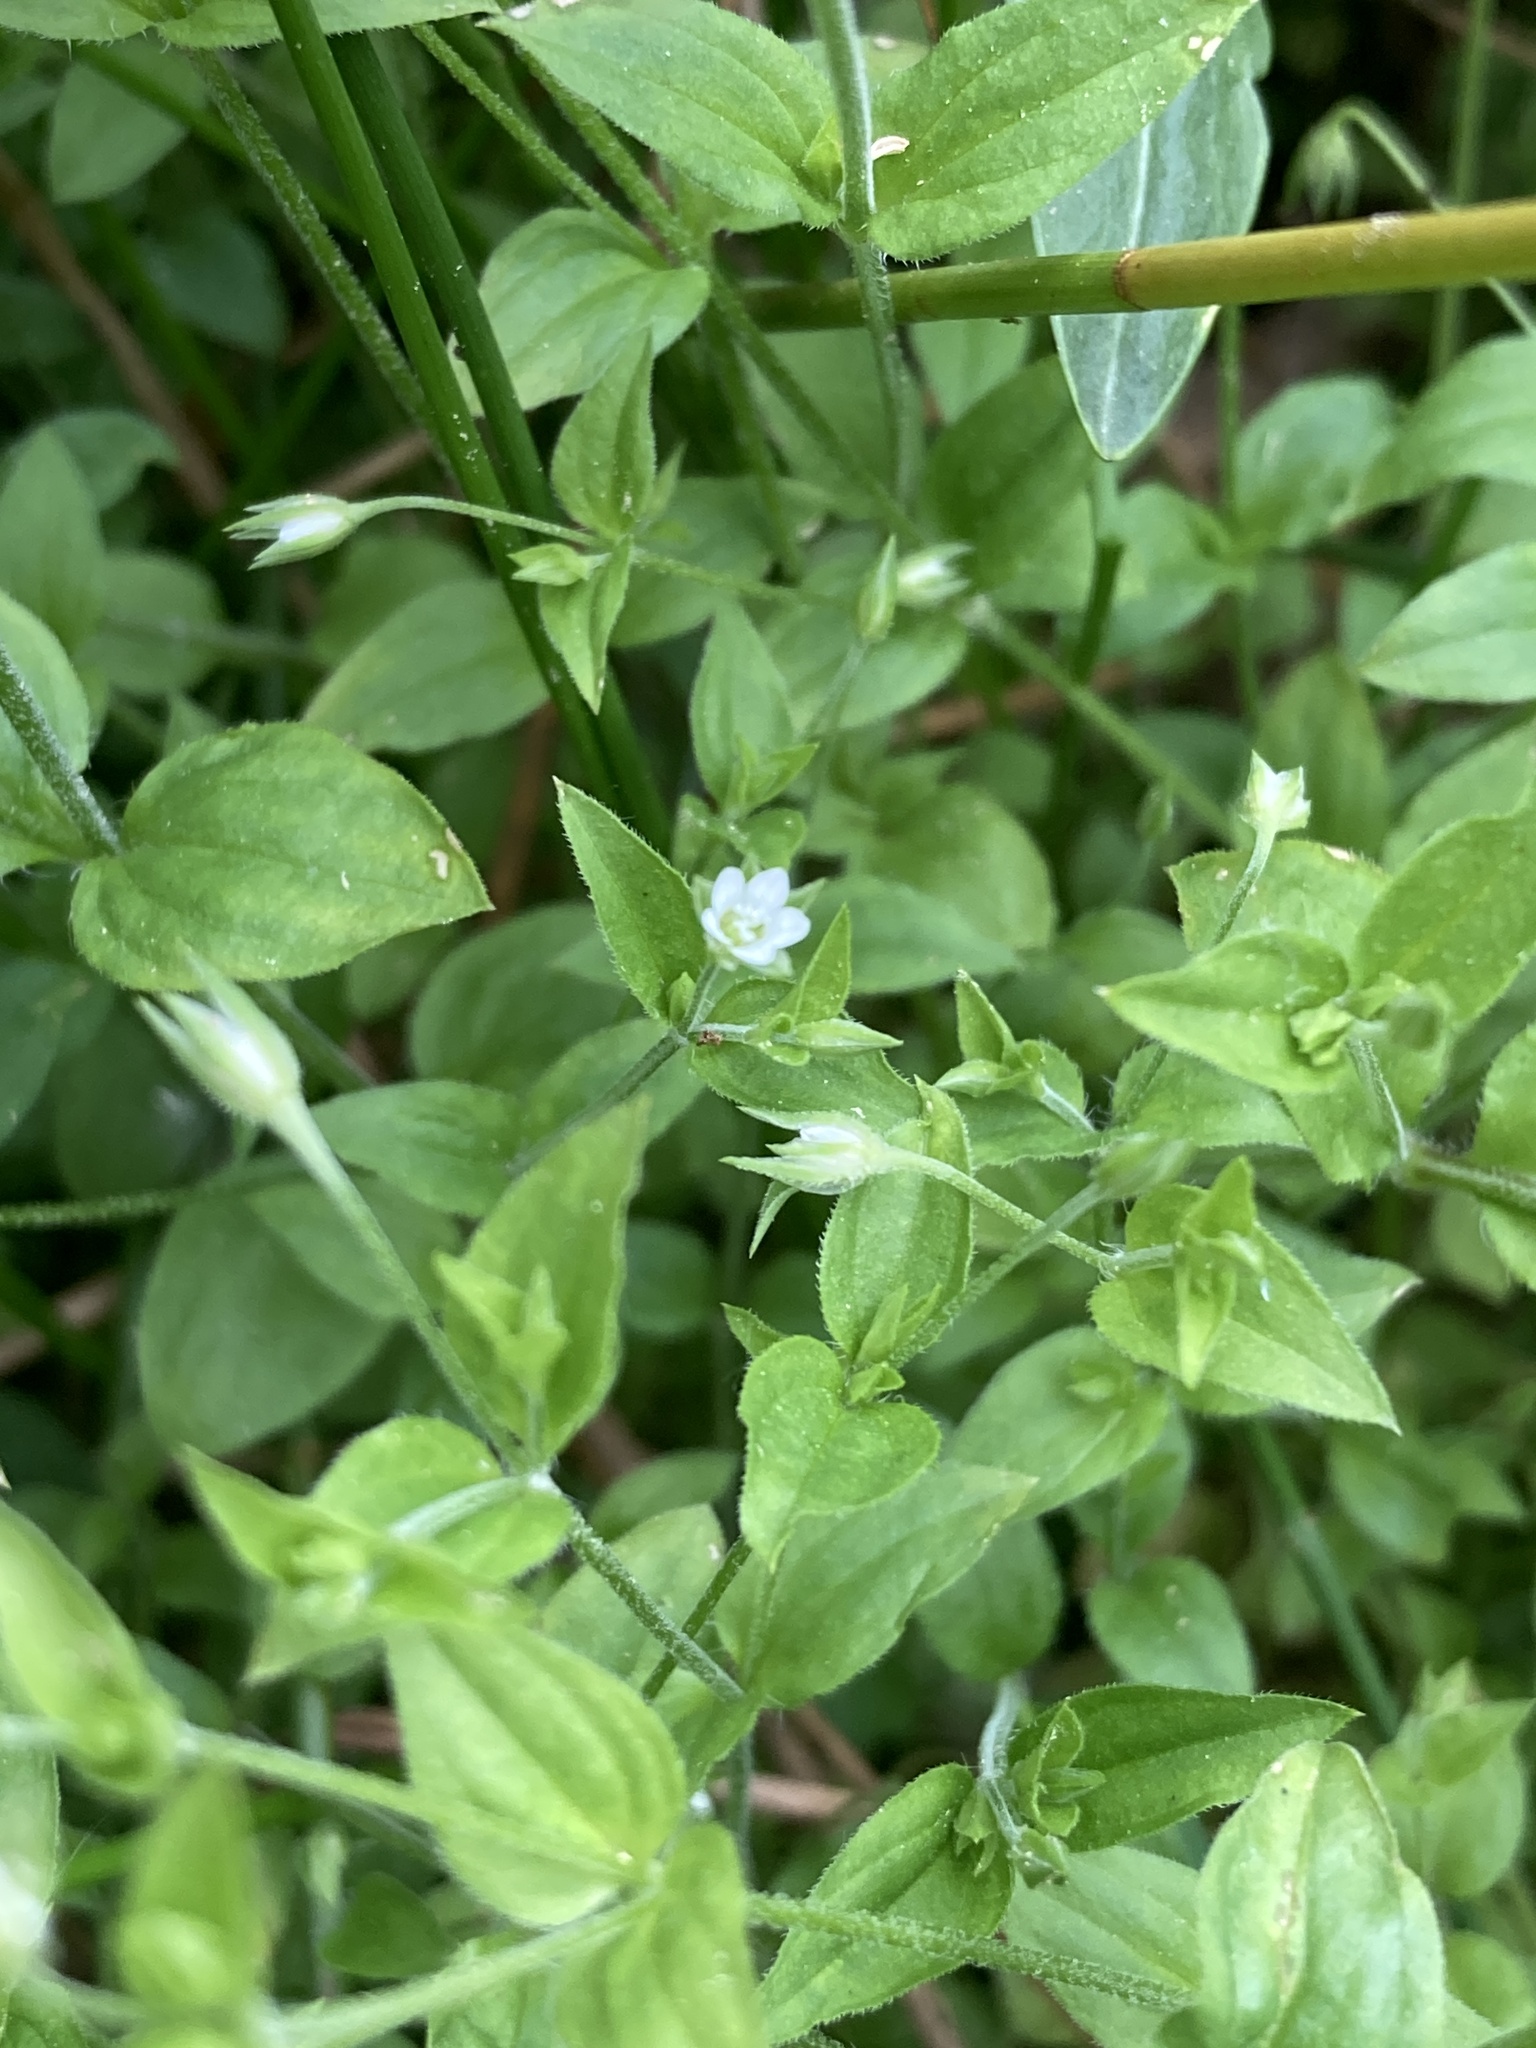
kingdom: Plantae
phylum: Tracheophyta
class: Magnoliopsida
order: Caryophyllales
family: Caryophyllaceae
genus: Moehringia
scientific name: Moehringia trinervia
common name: Three-nerved sandwort
